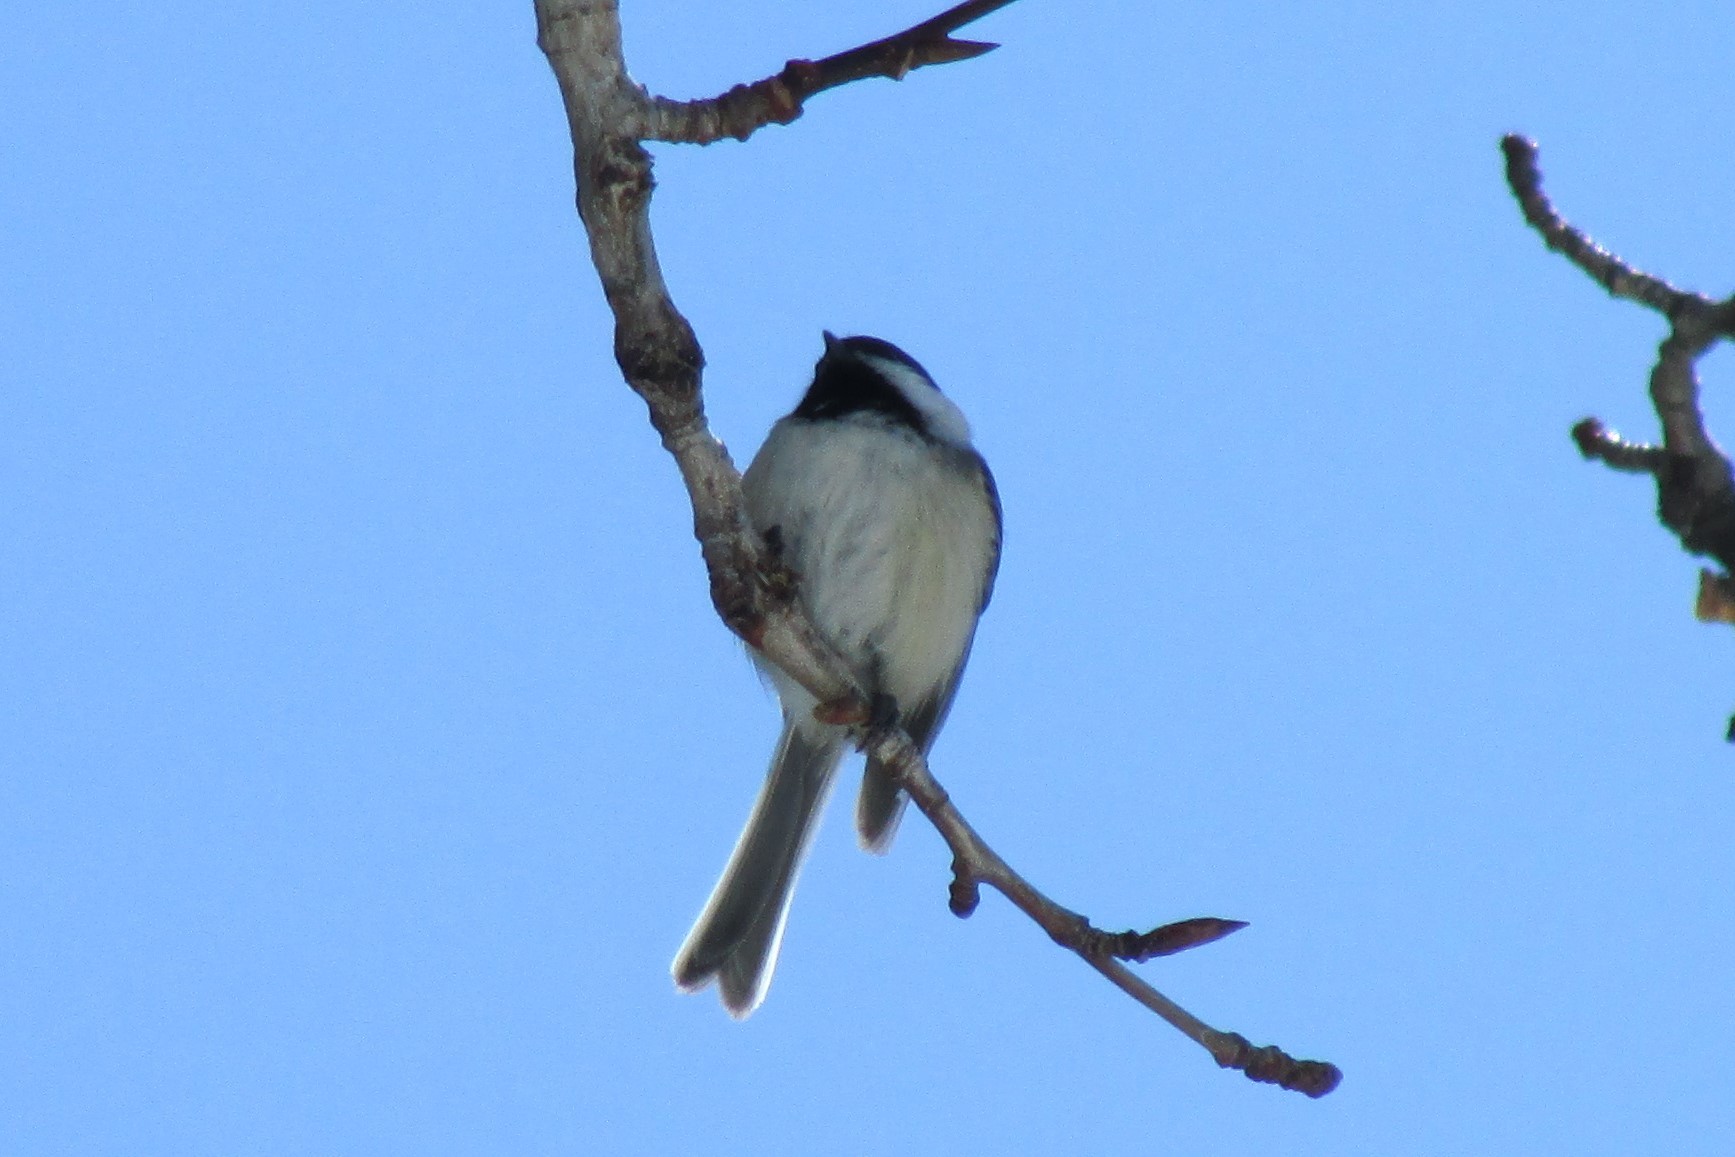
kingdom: Animalia
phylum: Chordata
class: Aves
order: Passeriformes
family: Paridae
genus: Poecile
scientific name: Poecile atricapillus
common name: Black-capped chickadee
